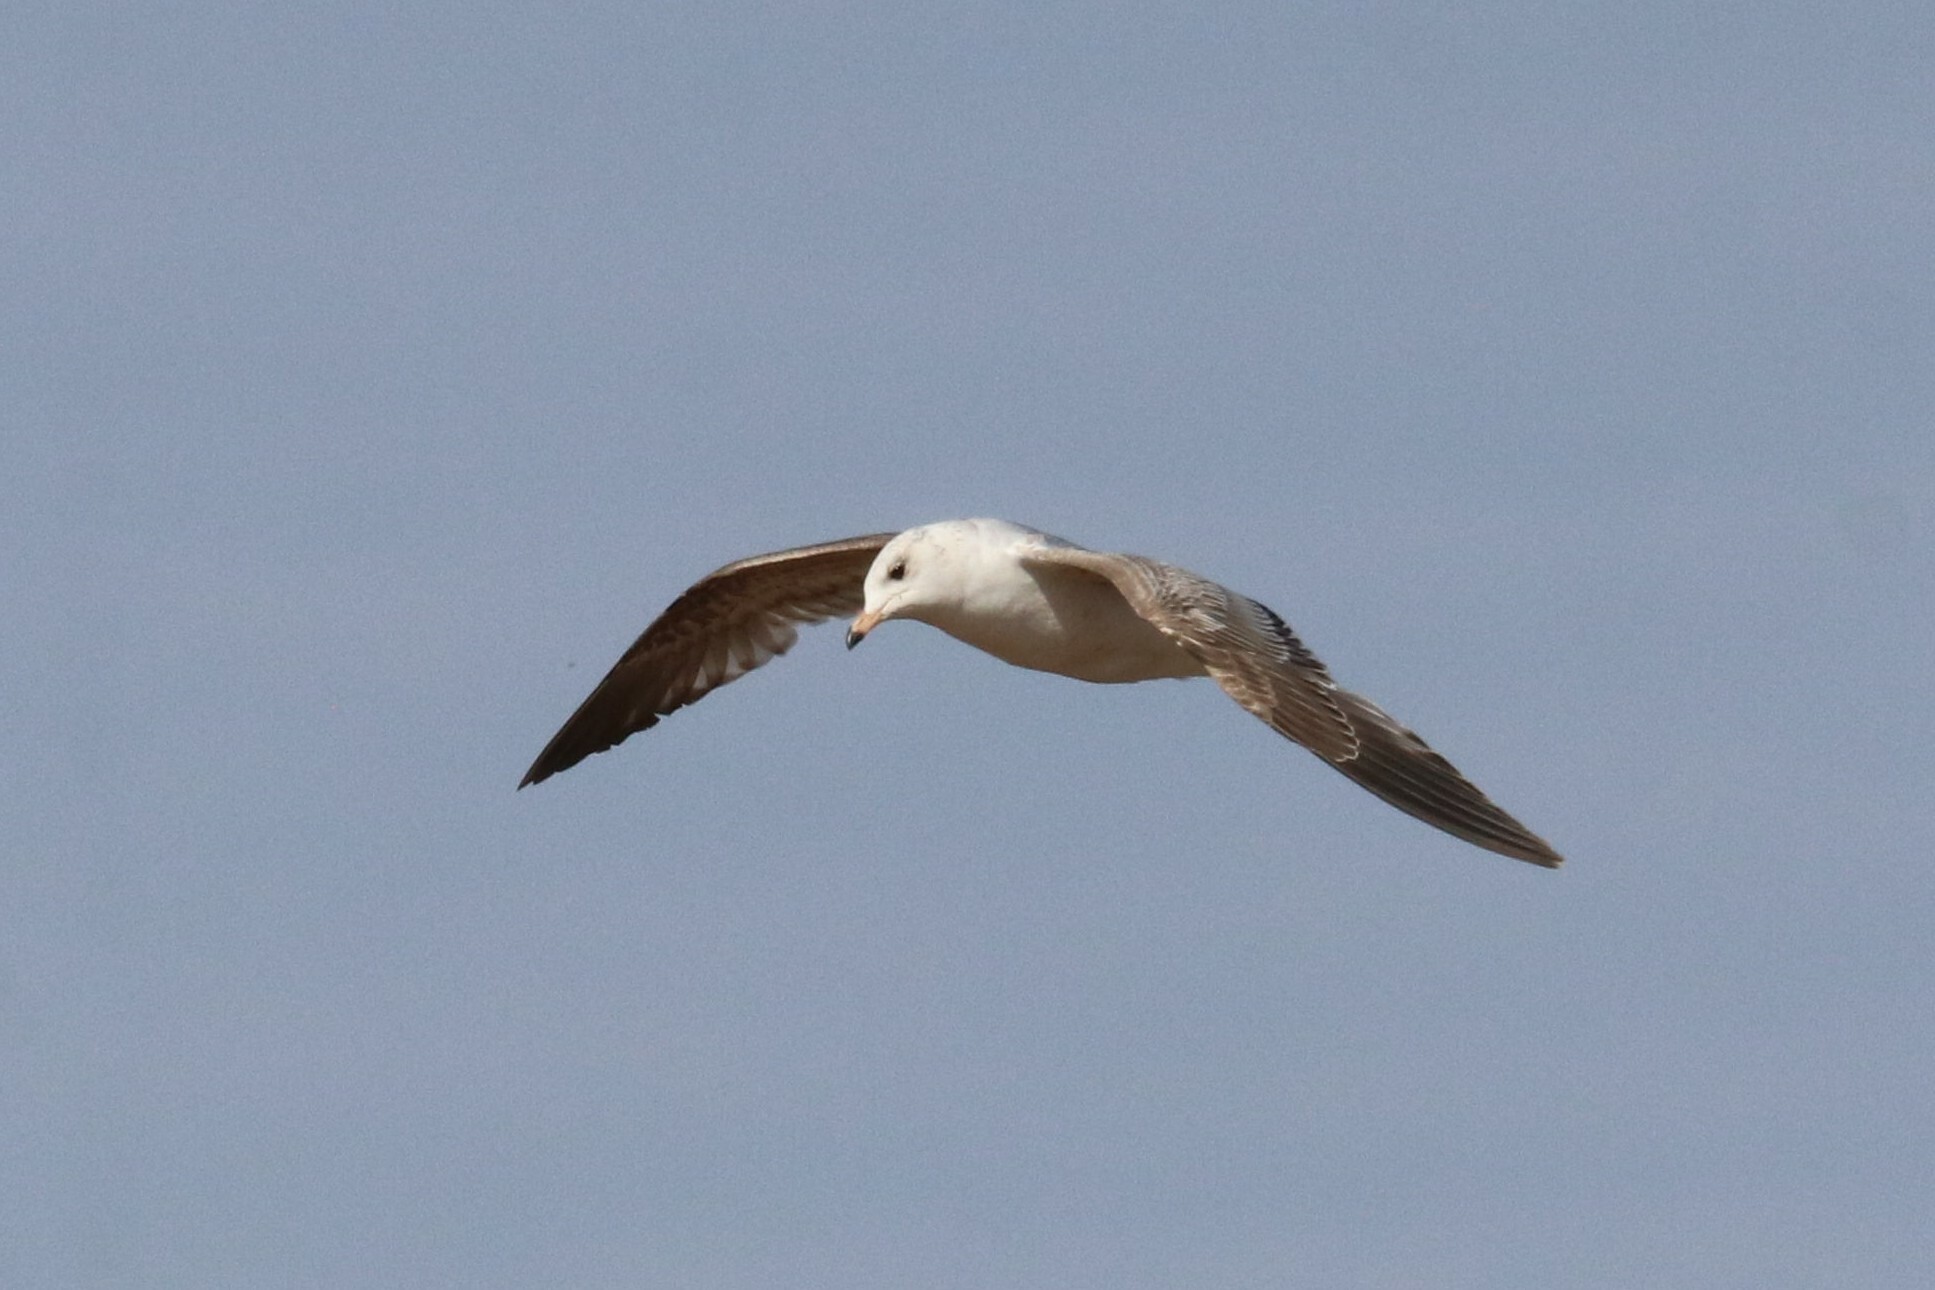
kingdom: Animalia
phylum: Chordata
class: Aves
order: Charadriiformes
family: Laridae
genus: Larus
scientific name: Larus canus
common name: Mew gull
